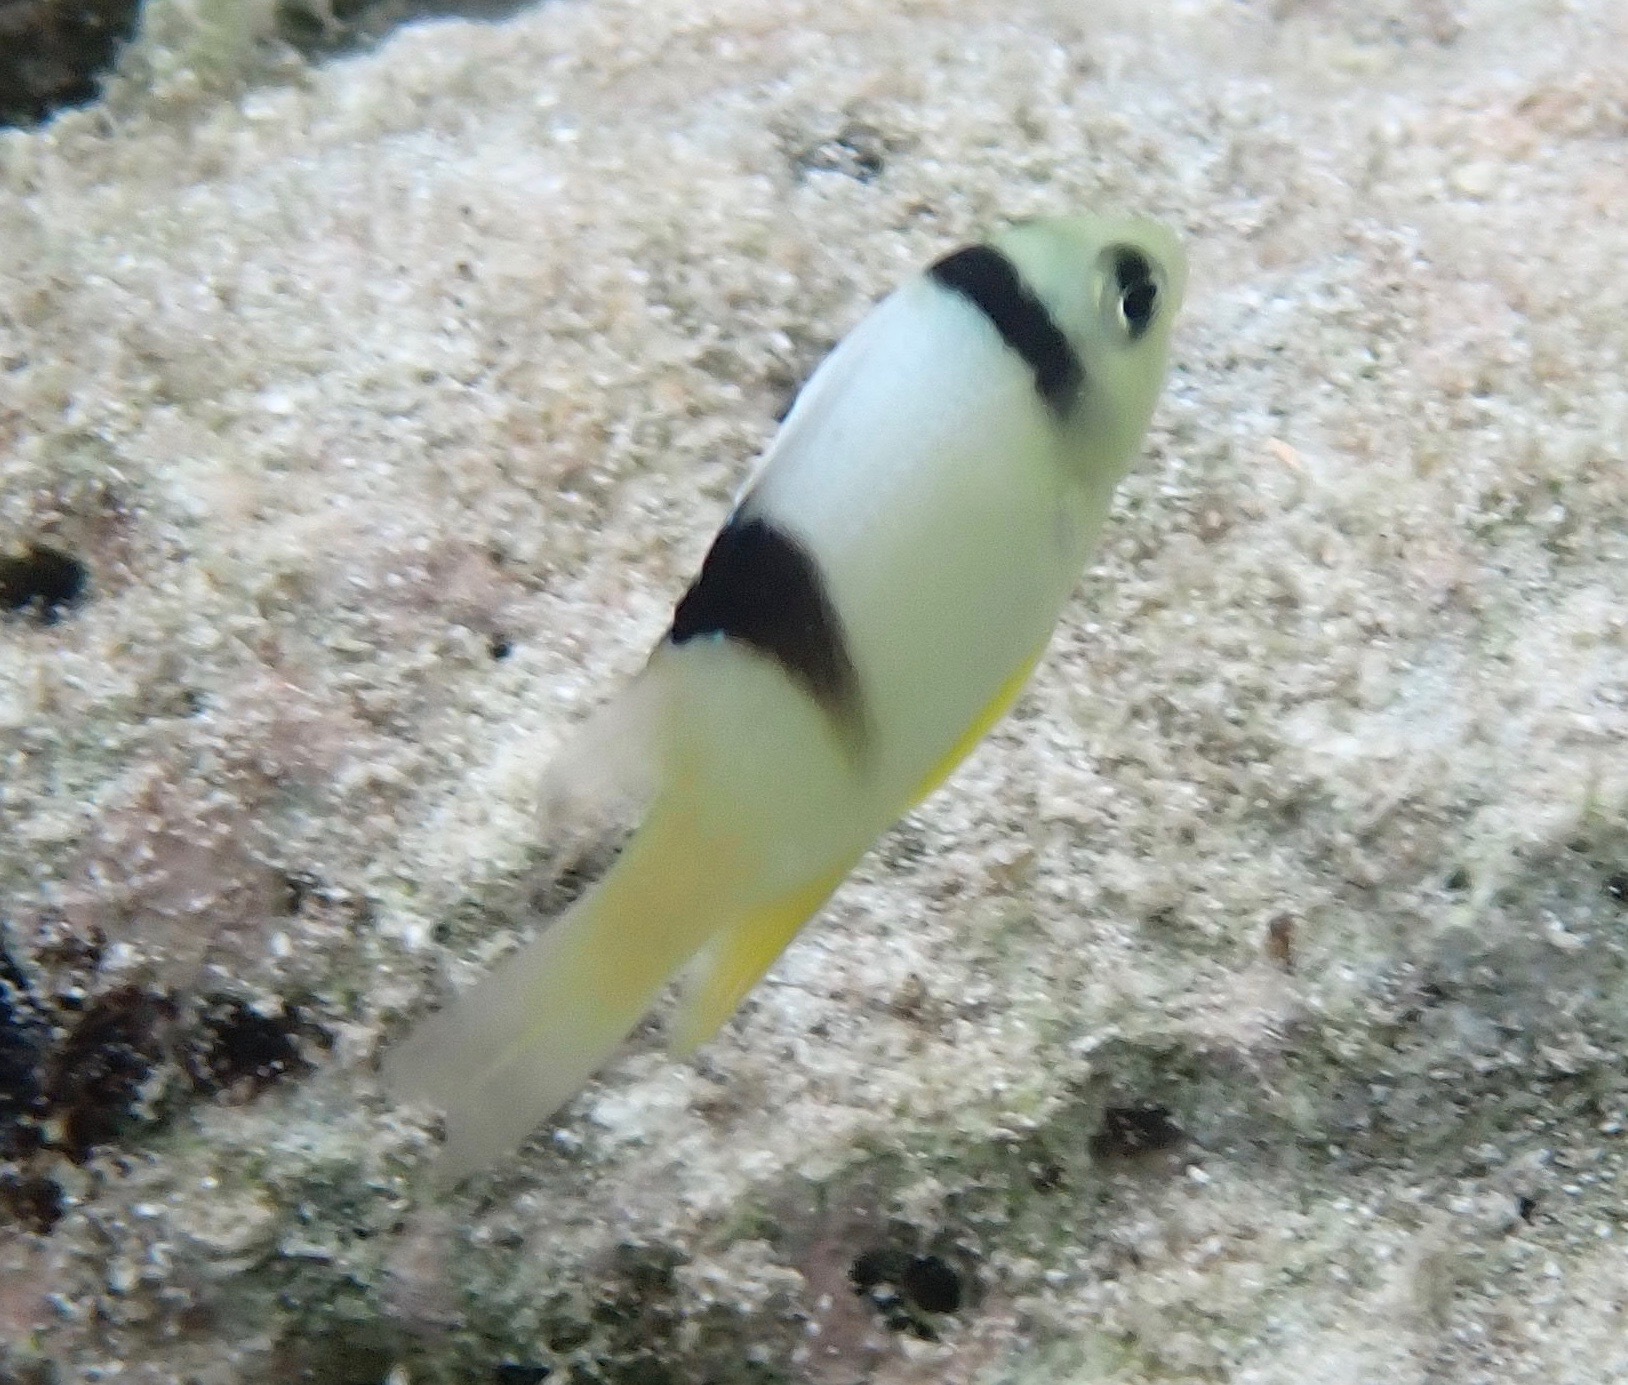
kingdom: Animalia
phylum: Chordata
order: Perciformes
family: Pomacentridae
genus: Dischistodus
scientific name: Dischistodus perspicillatus
